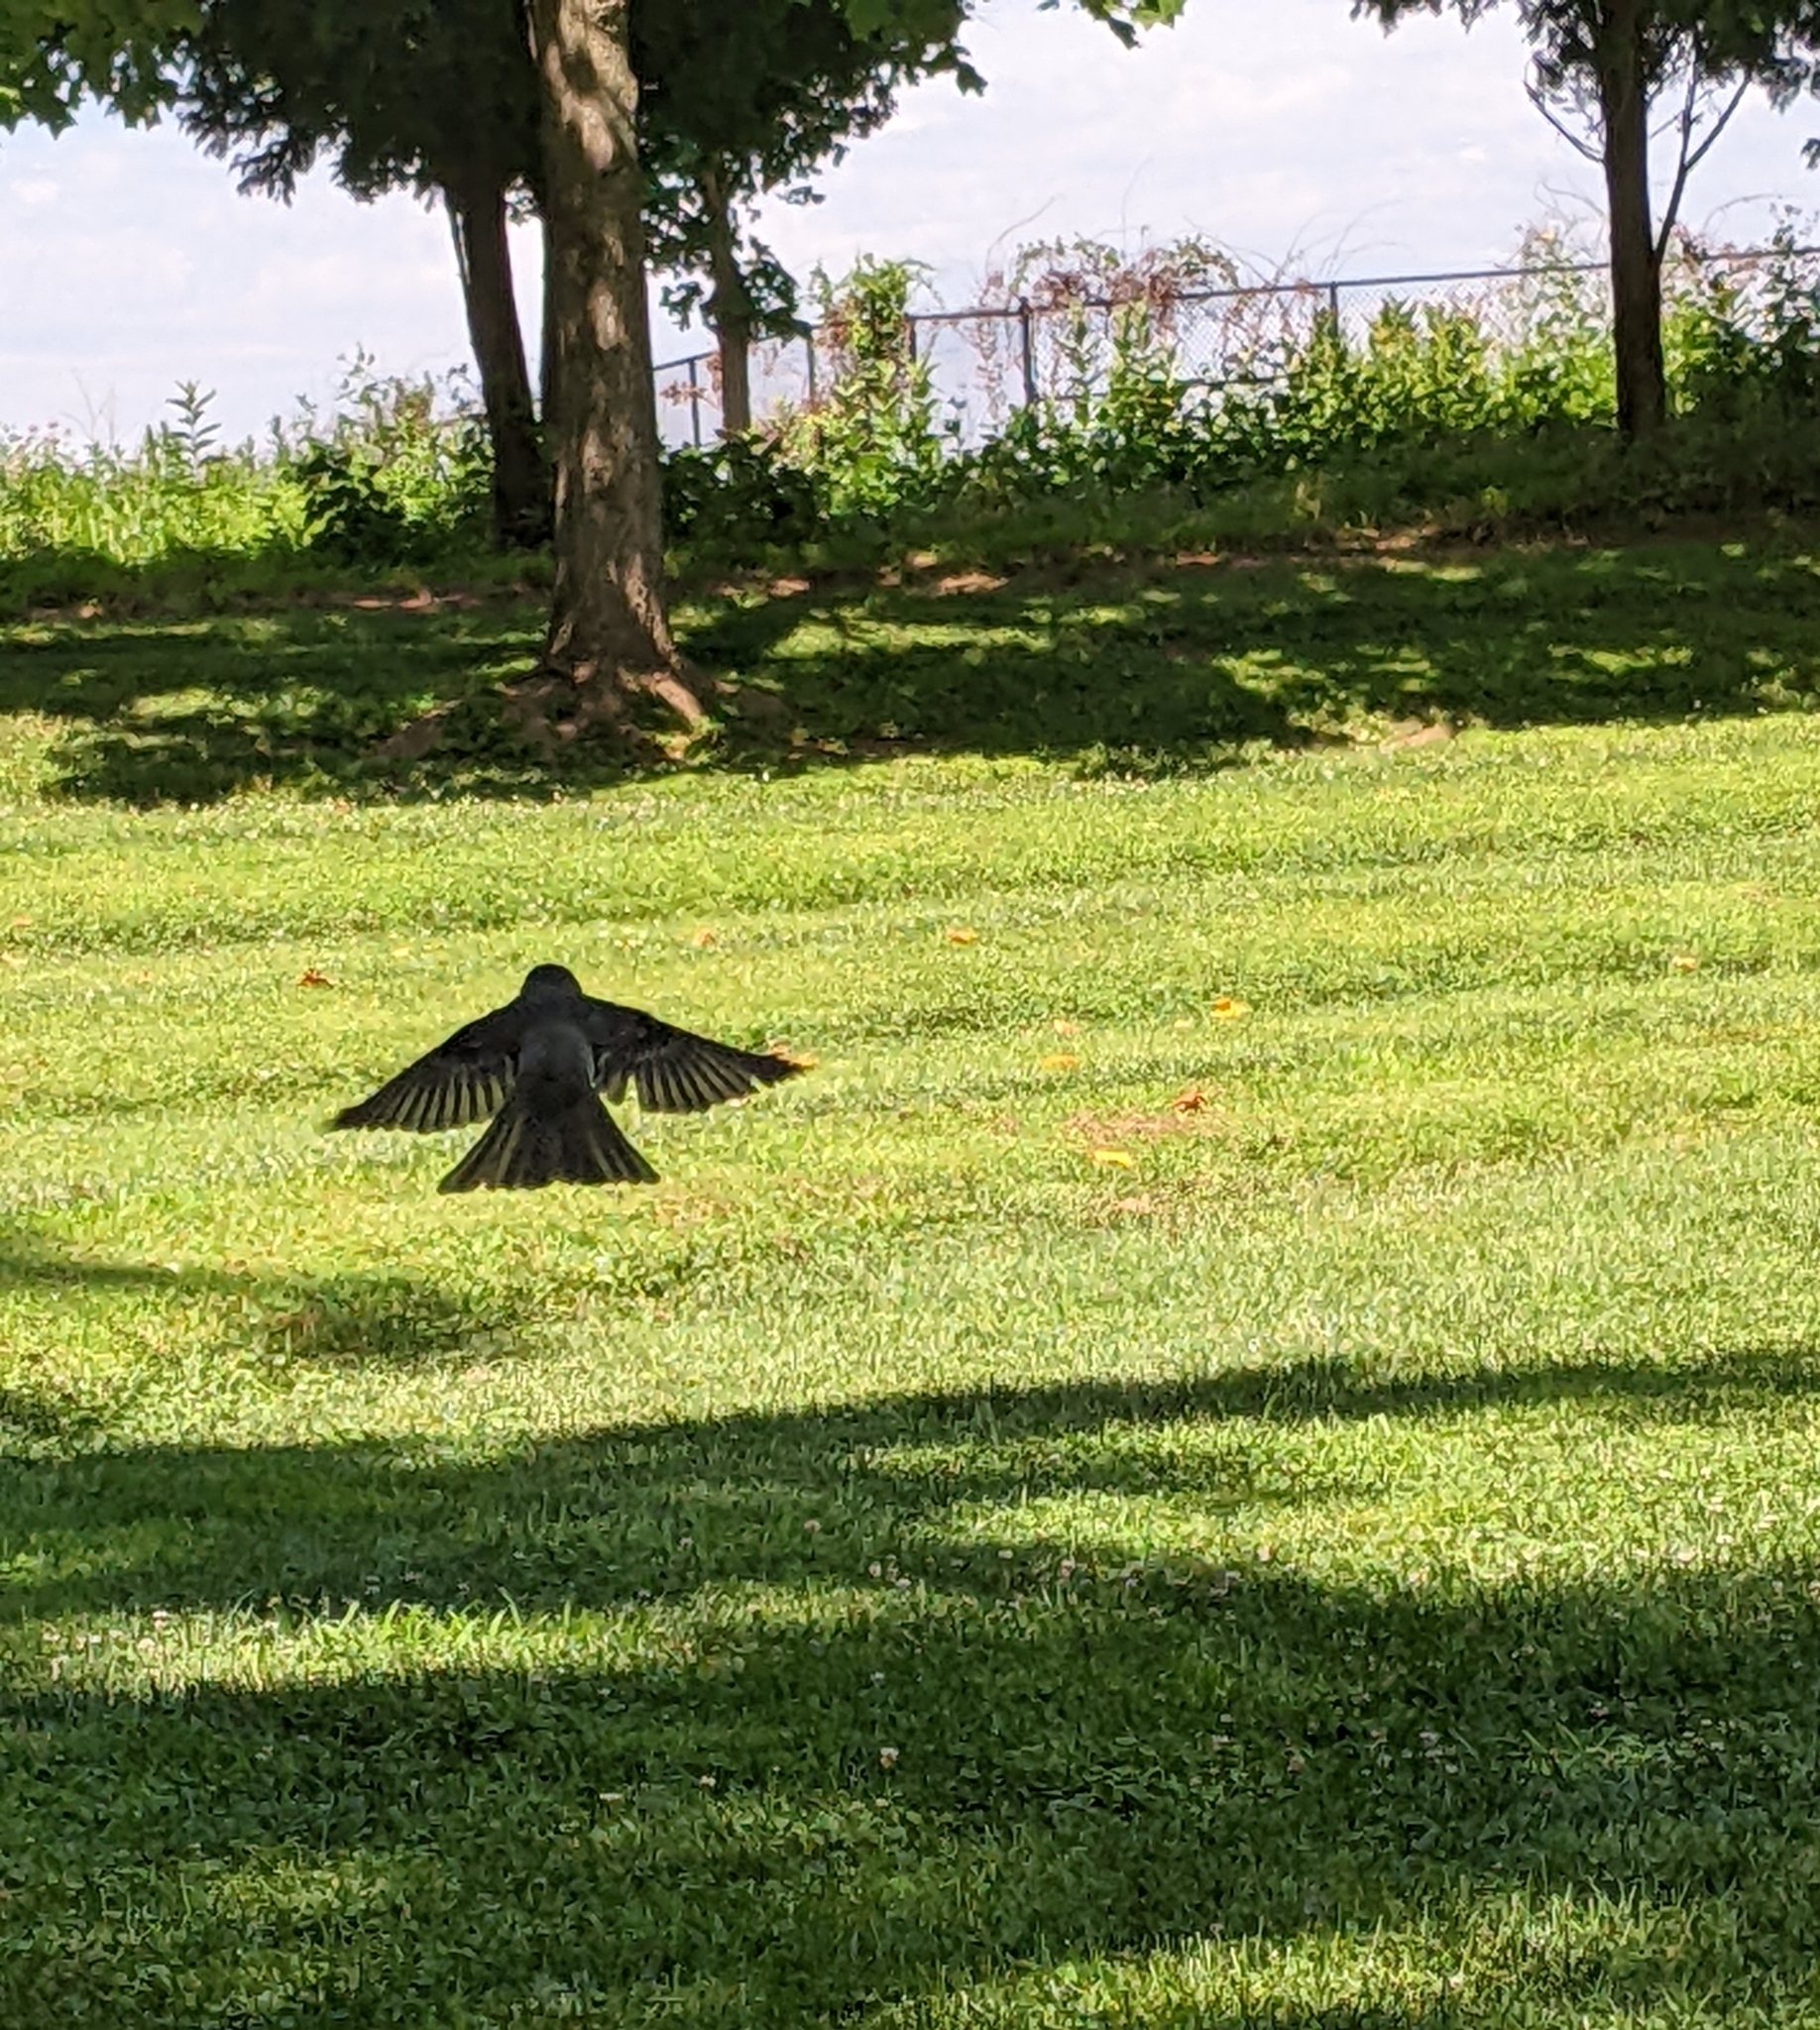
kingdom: Animalia
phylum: Chordata
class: Aves
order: Passeriformes
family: Tyrannidae
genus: Tyrannus
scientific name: Tyrannus tyrannus
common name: Eastern kingbird
